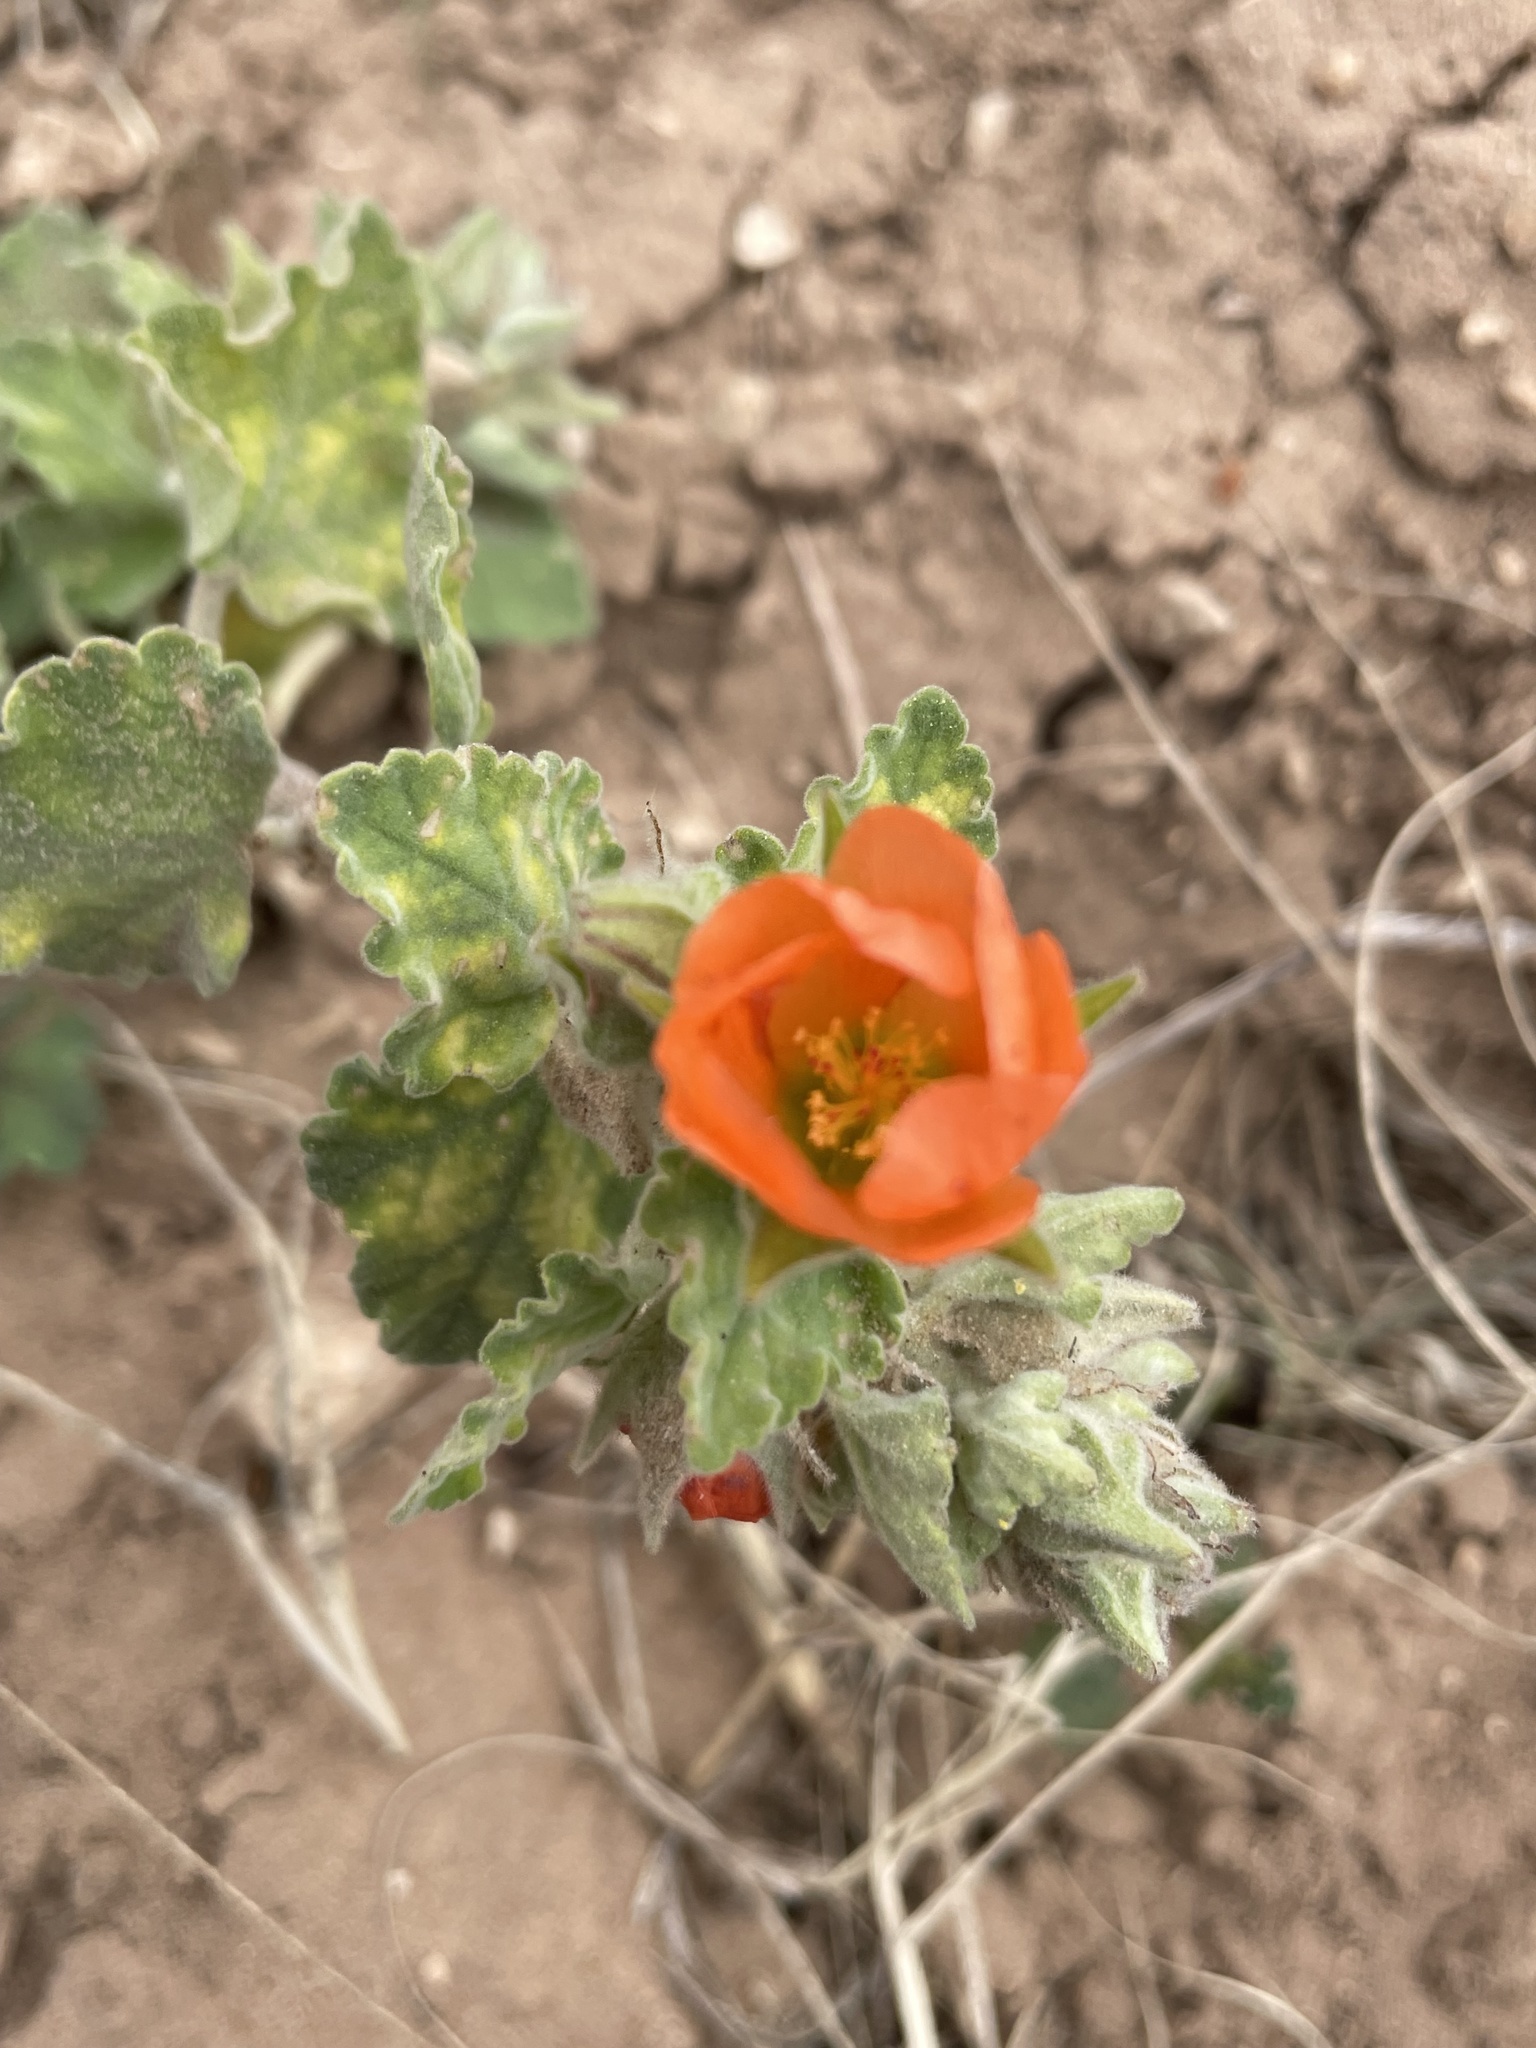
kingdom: Plantae
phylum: Tracheophyta
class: Magnoliopsida
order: Malvales
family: Malvaceae
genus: Sphaeralcea
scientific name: Sphaeralcea lindheimeri
